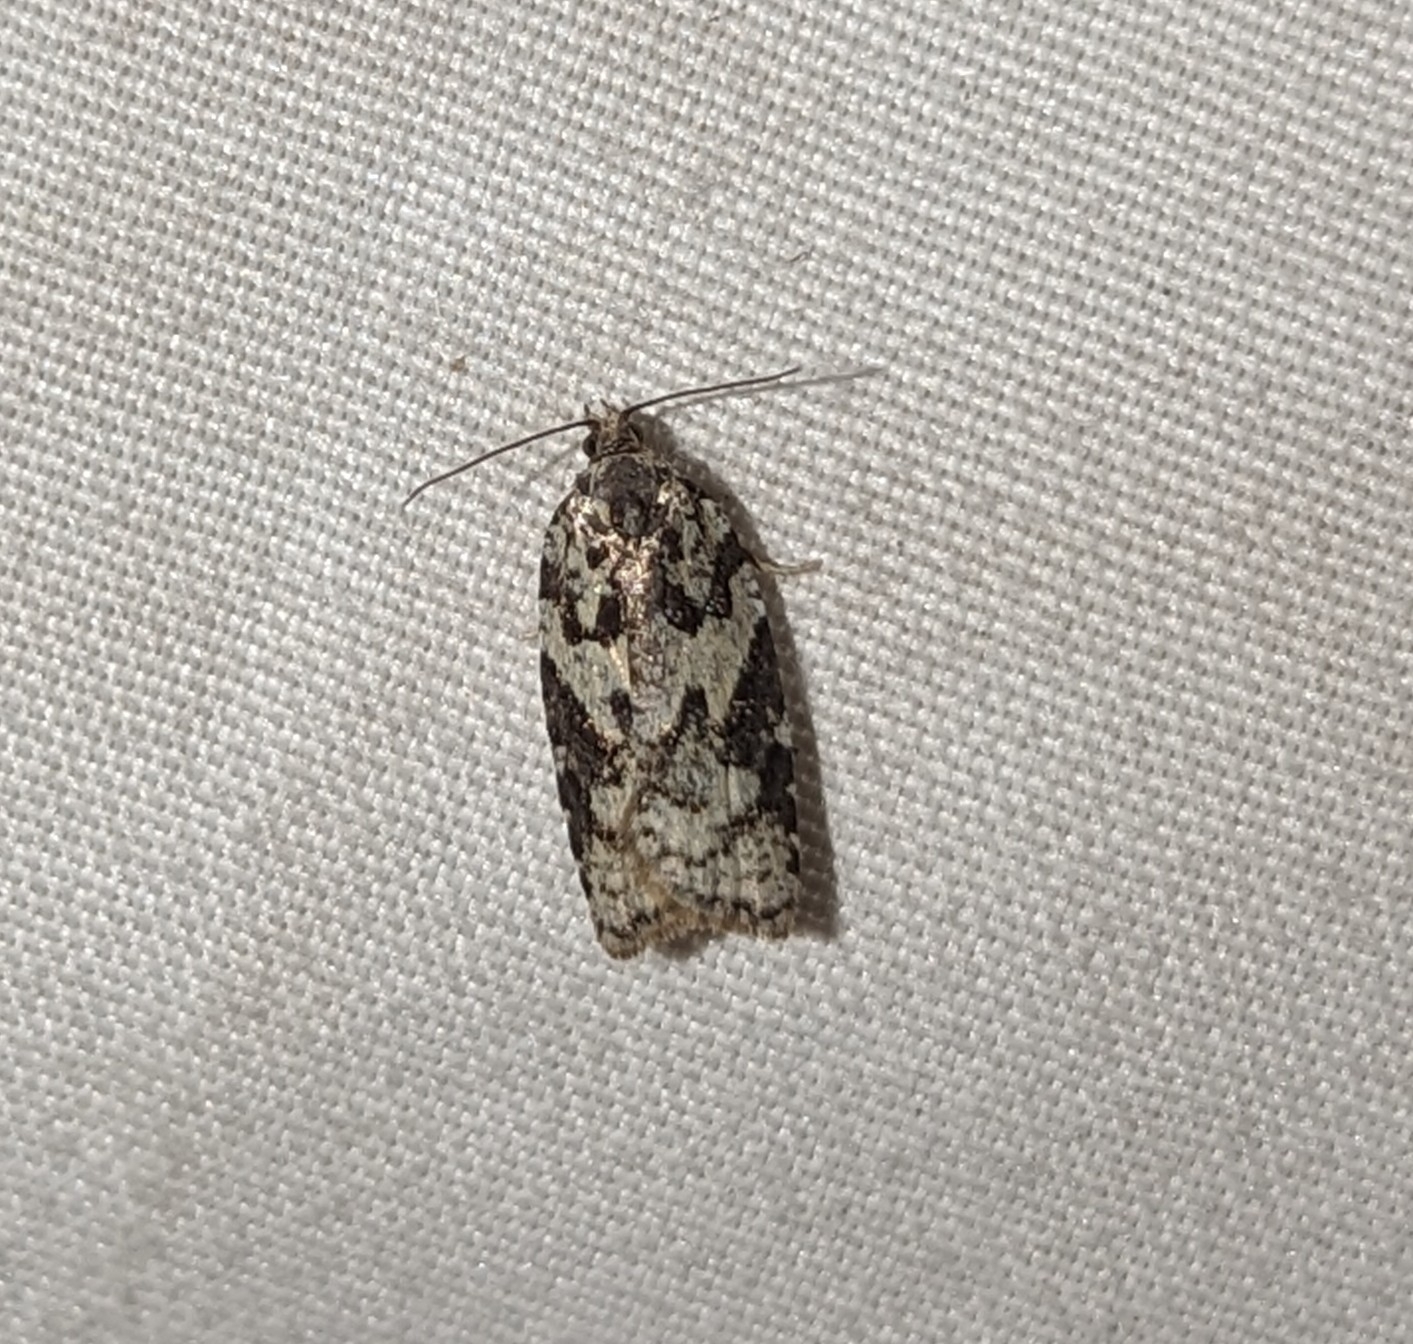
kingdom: Animalia
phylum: Arthropoda
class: Insecta
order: Lepidoptera
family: Tortricidae
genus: Acleris
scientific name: Acleris gloveranus
